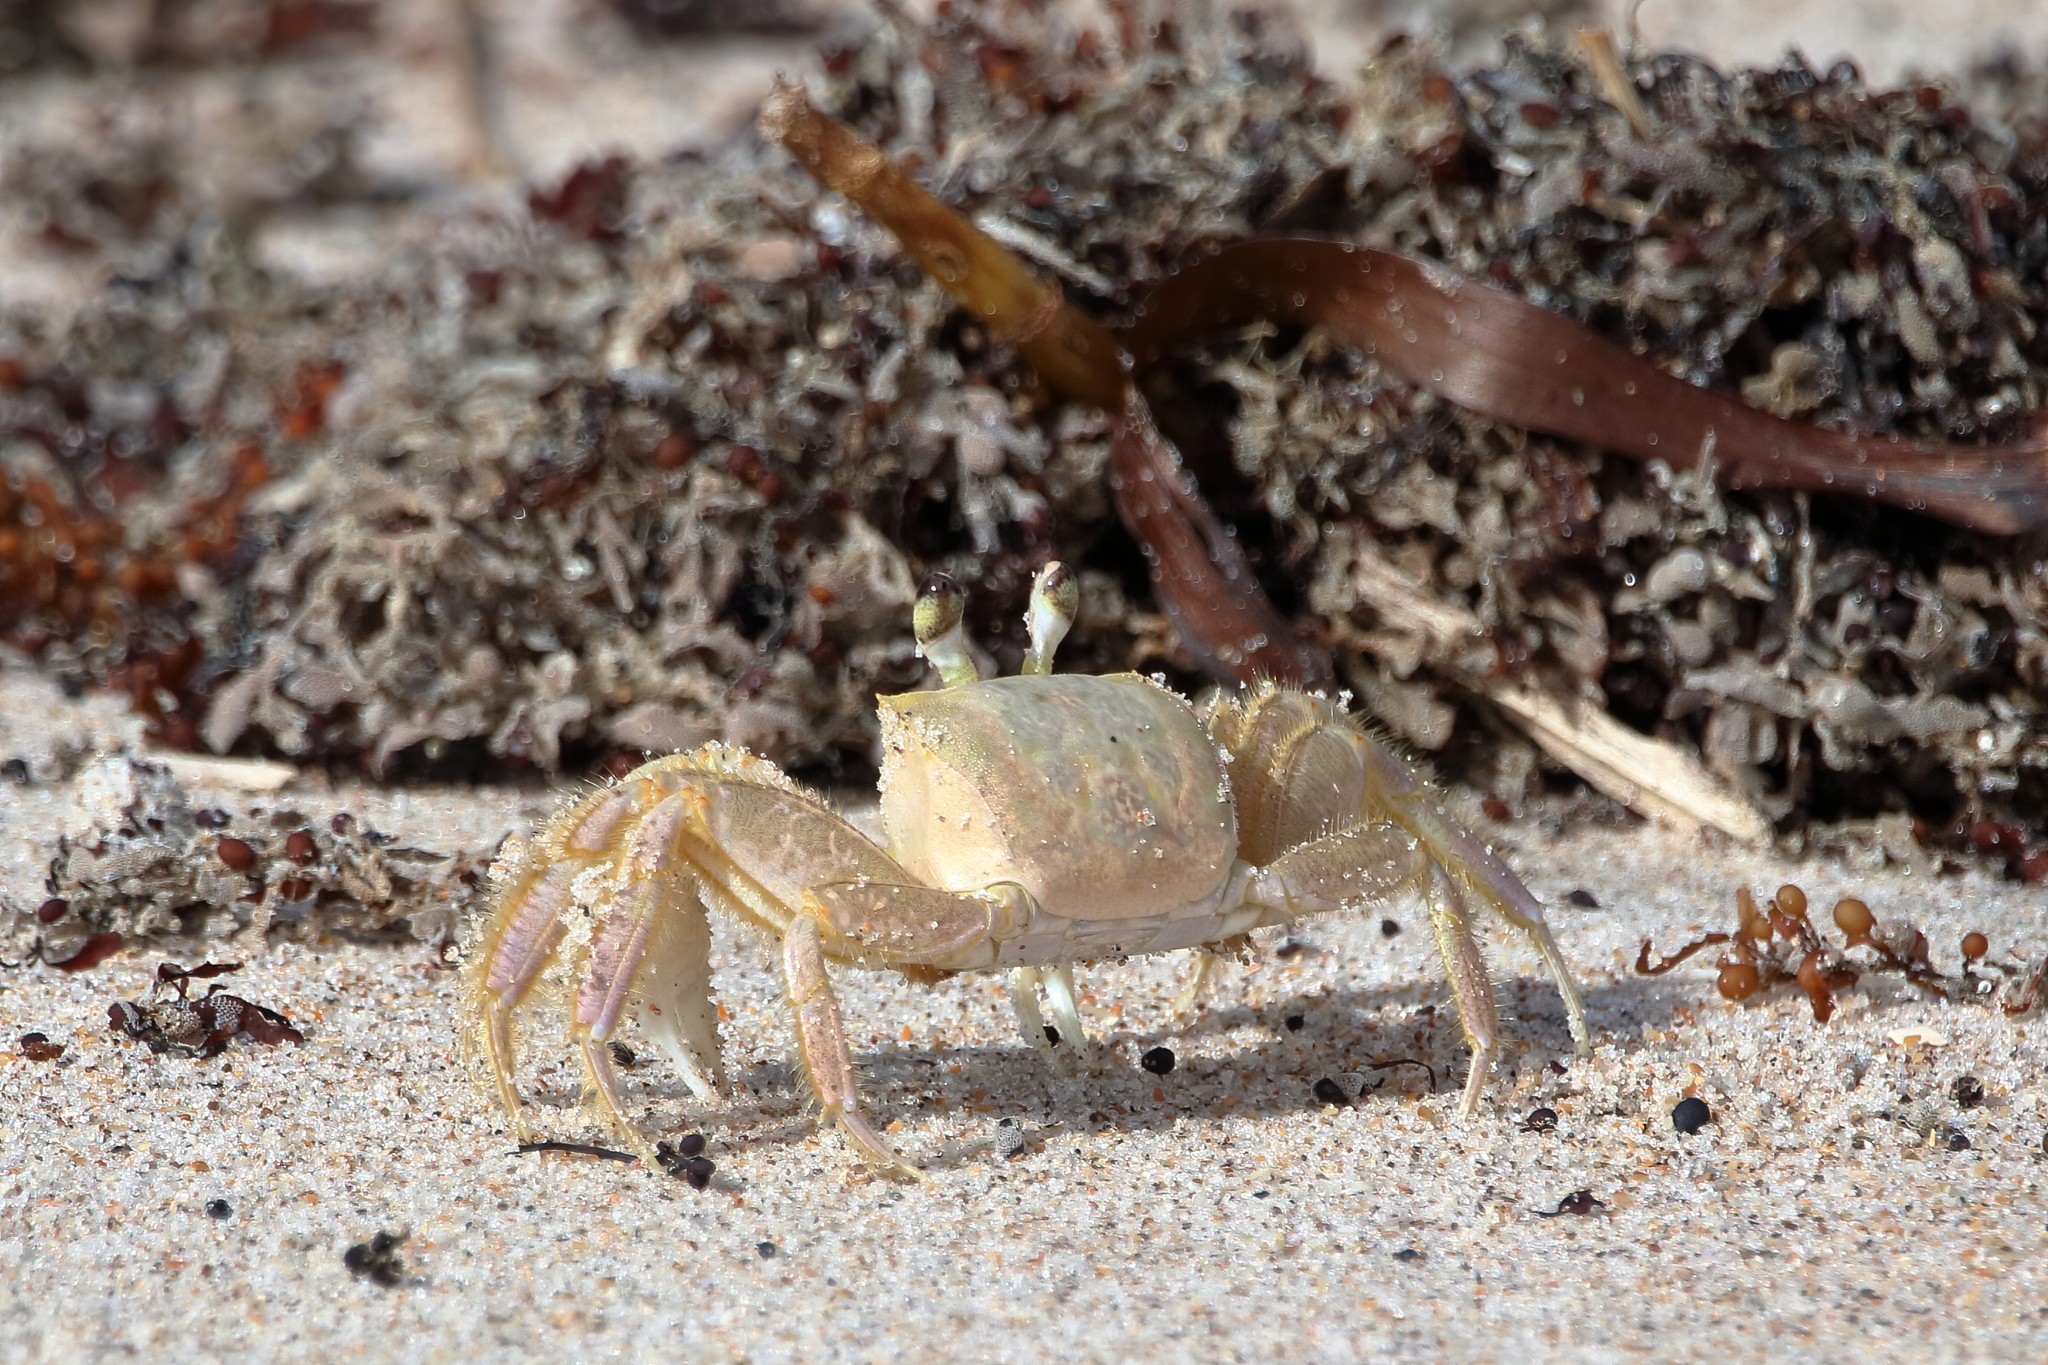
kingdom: Animalia
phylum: Arthropoda
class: Malacostraca
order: Decapoda
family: Ocypodidae
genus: Ocypode
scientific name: Ocypode quadrata
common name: Ghost crab
